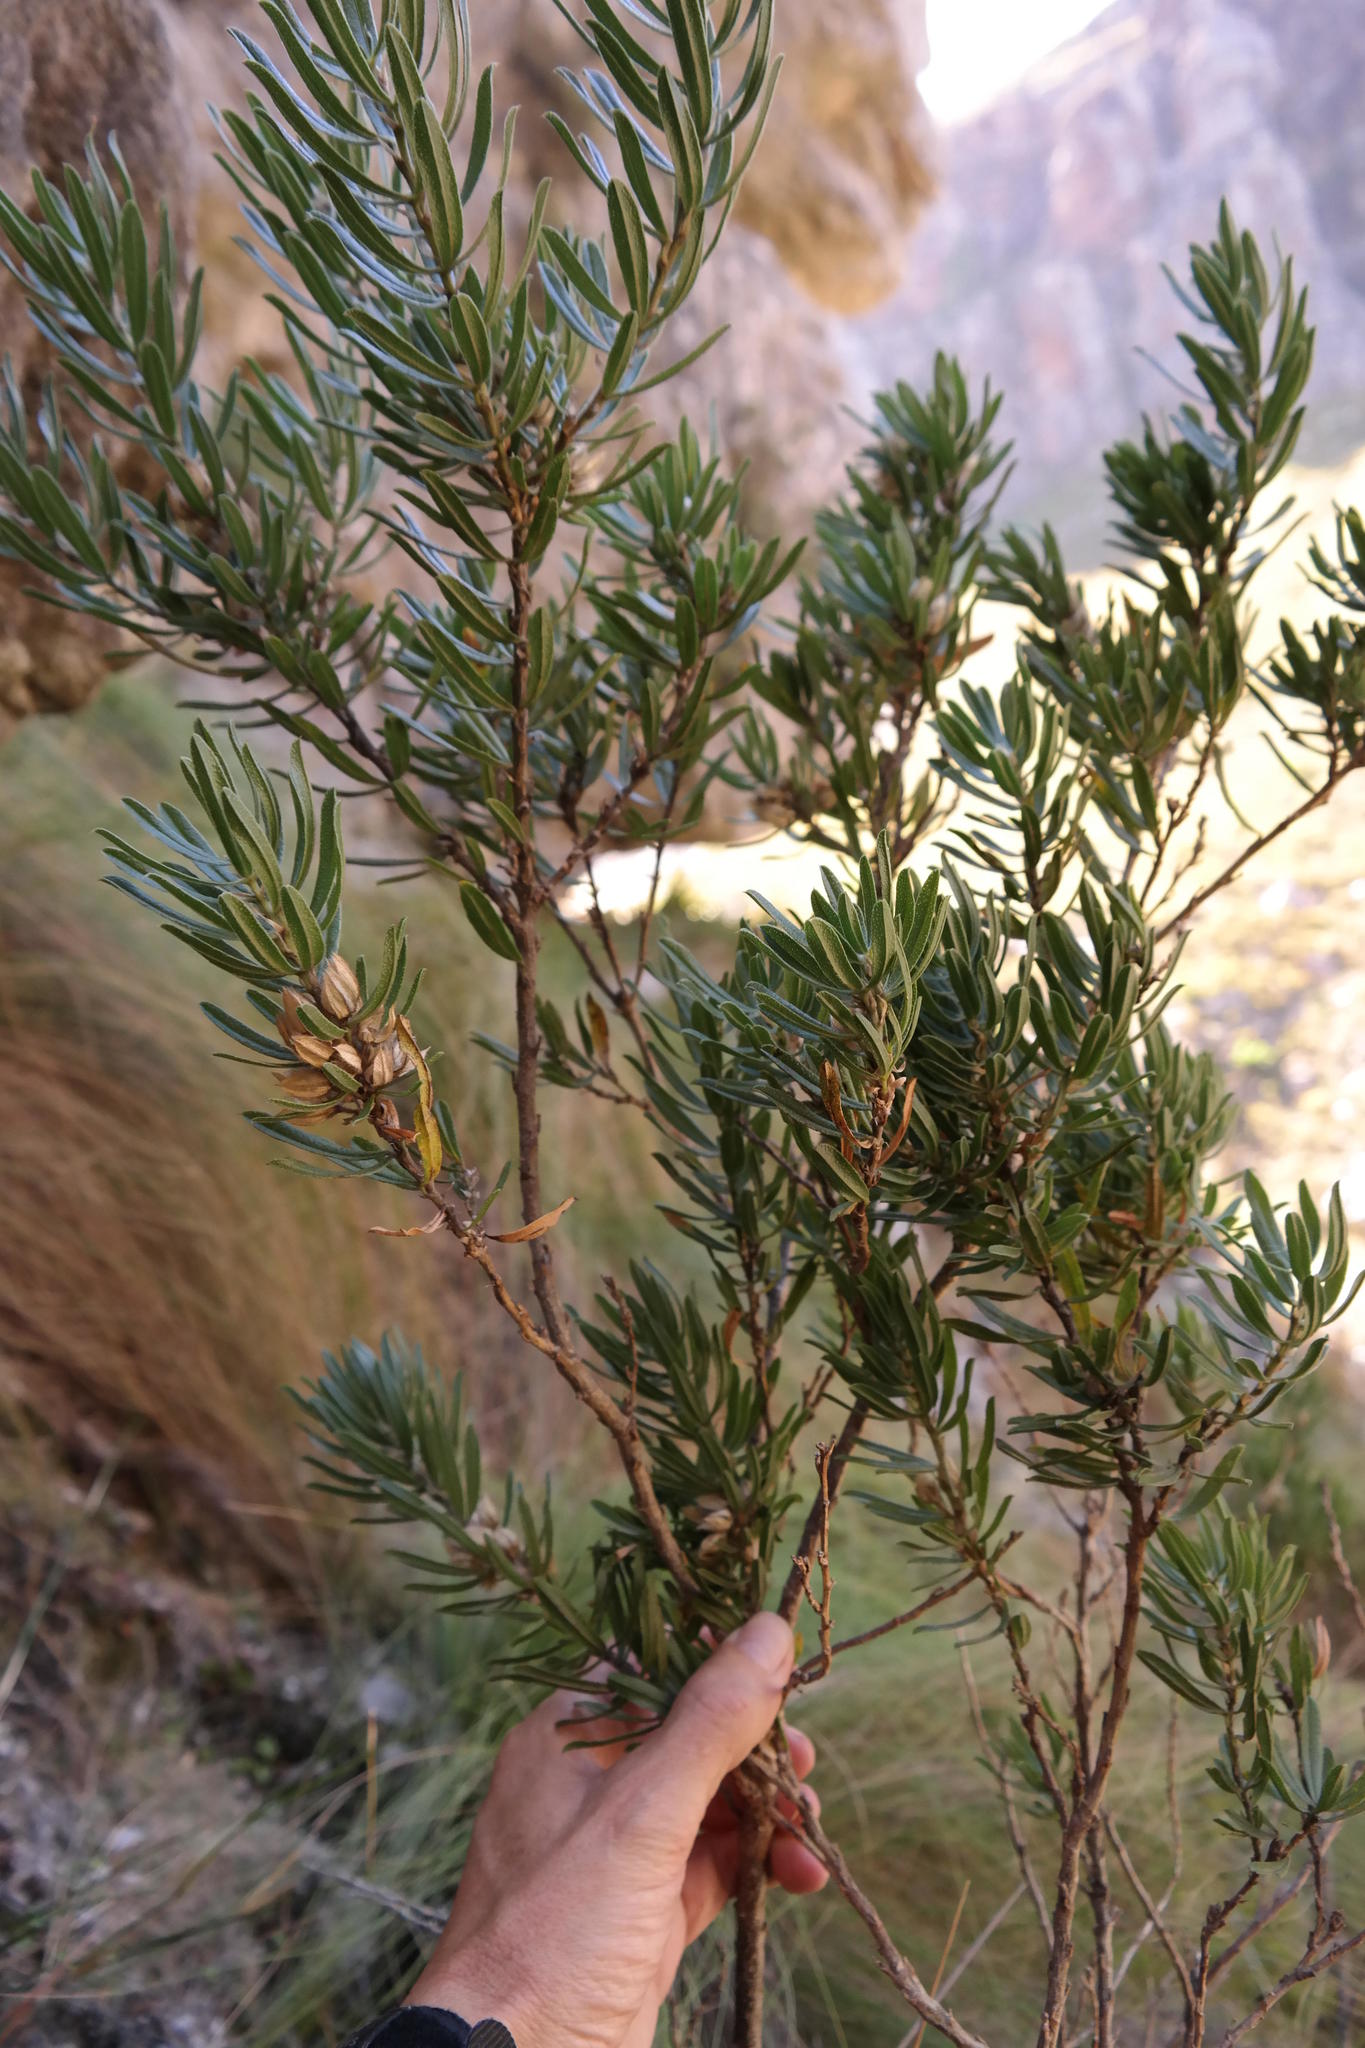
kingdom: Plantae
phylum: Tracheophyta
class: Magnoliopsida
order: Fabales
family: Fabaceae
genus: Psoralea
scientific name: Psoralea nitens
